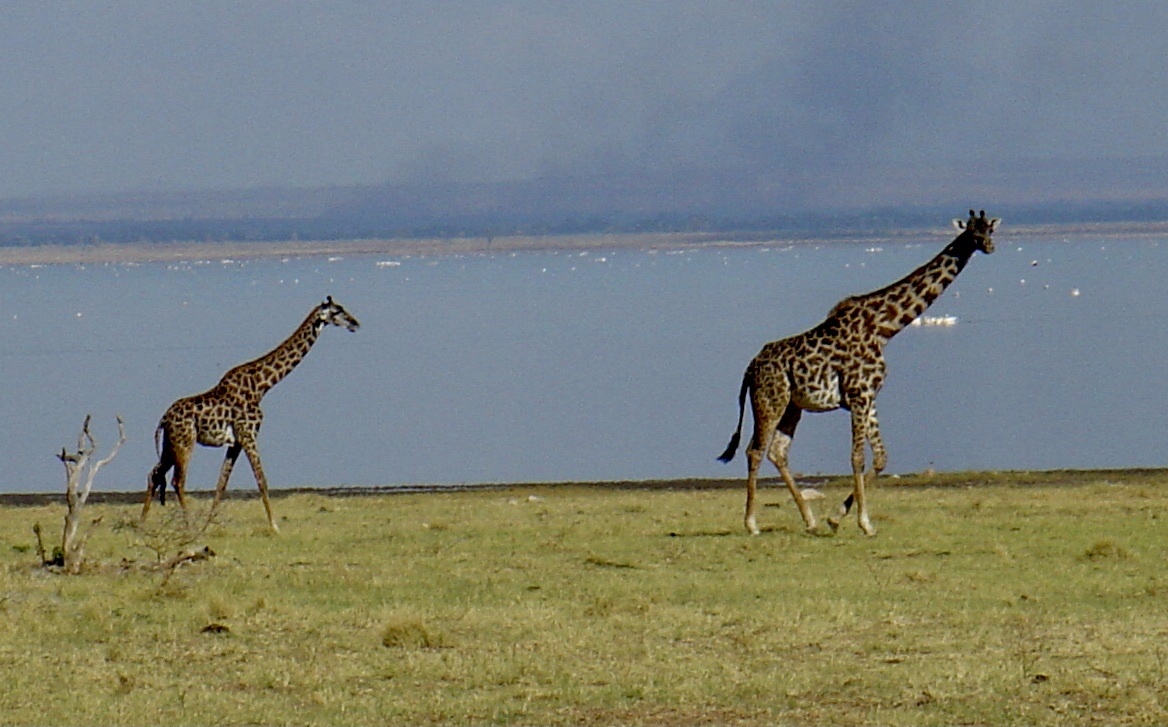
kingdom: Animalia
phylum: Chordata
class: Mammalia
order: Artiodactyla
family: Giraffidae
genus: Giraffa
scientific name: Giraffa tippelskirchi
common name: Masai giraffe
